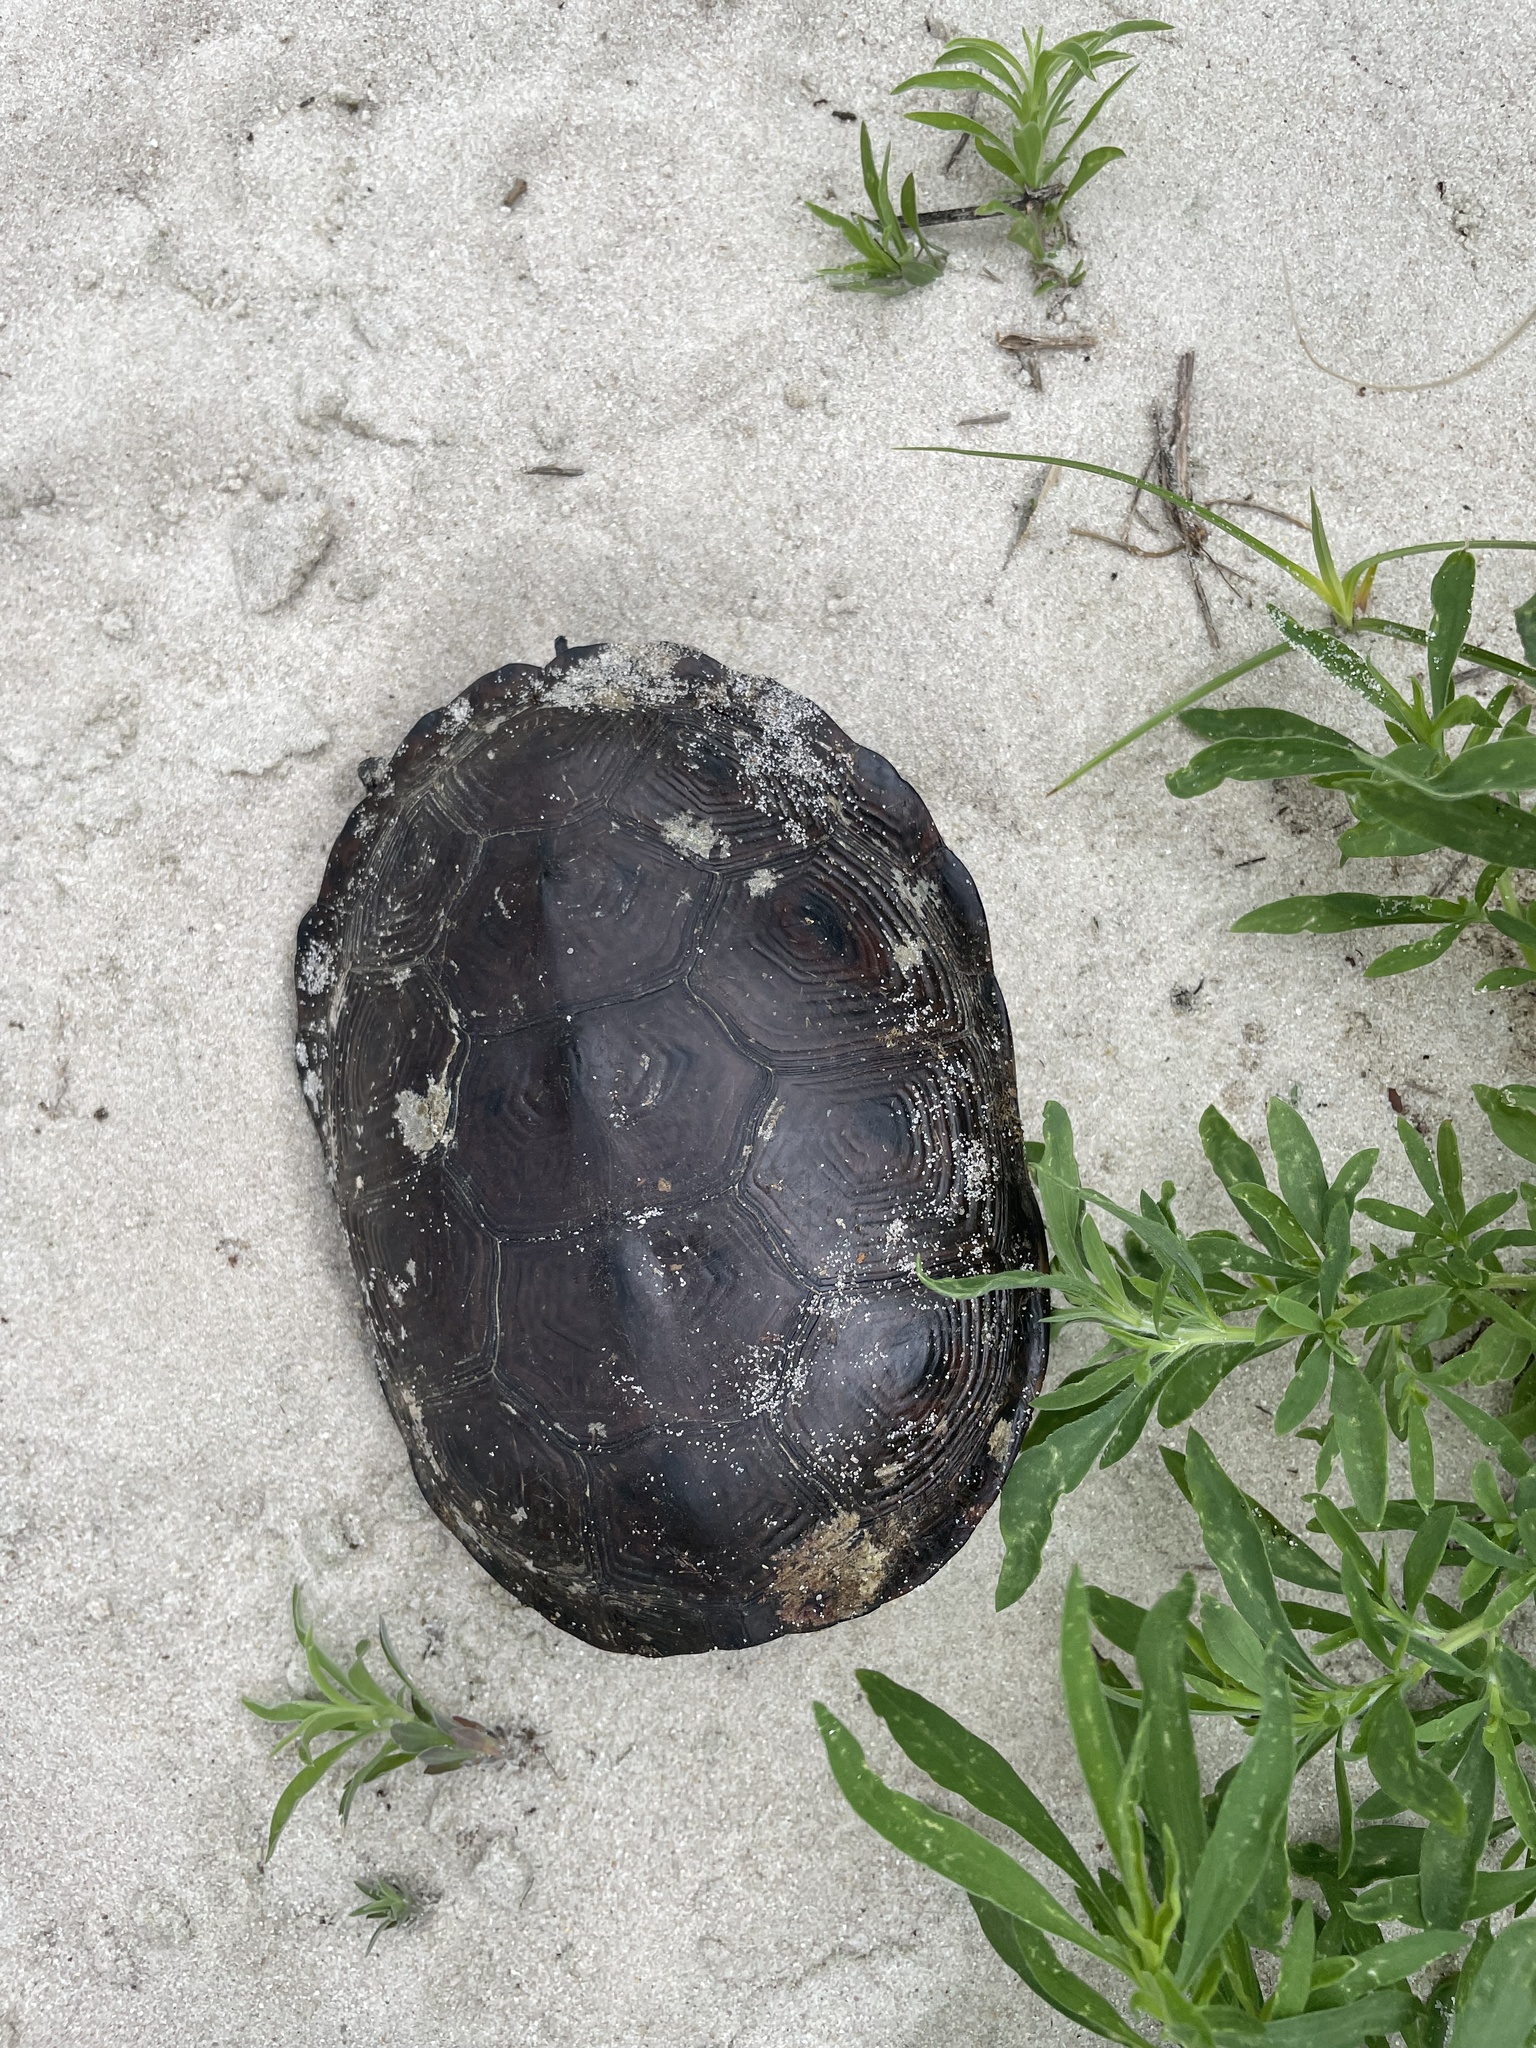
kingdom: Animalia
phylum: Chordata
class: Testudines
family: Emydidae
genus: Malaclemys
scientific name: Malaclemys terrapin
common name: Diamondback terrapin
